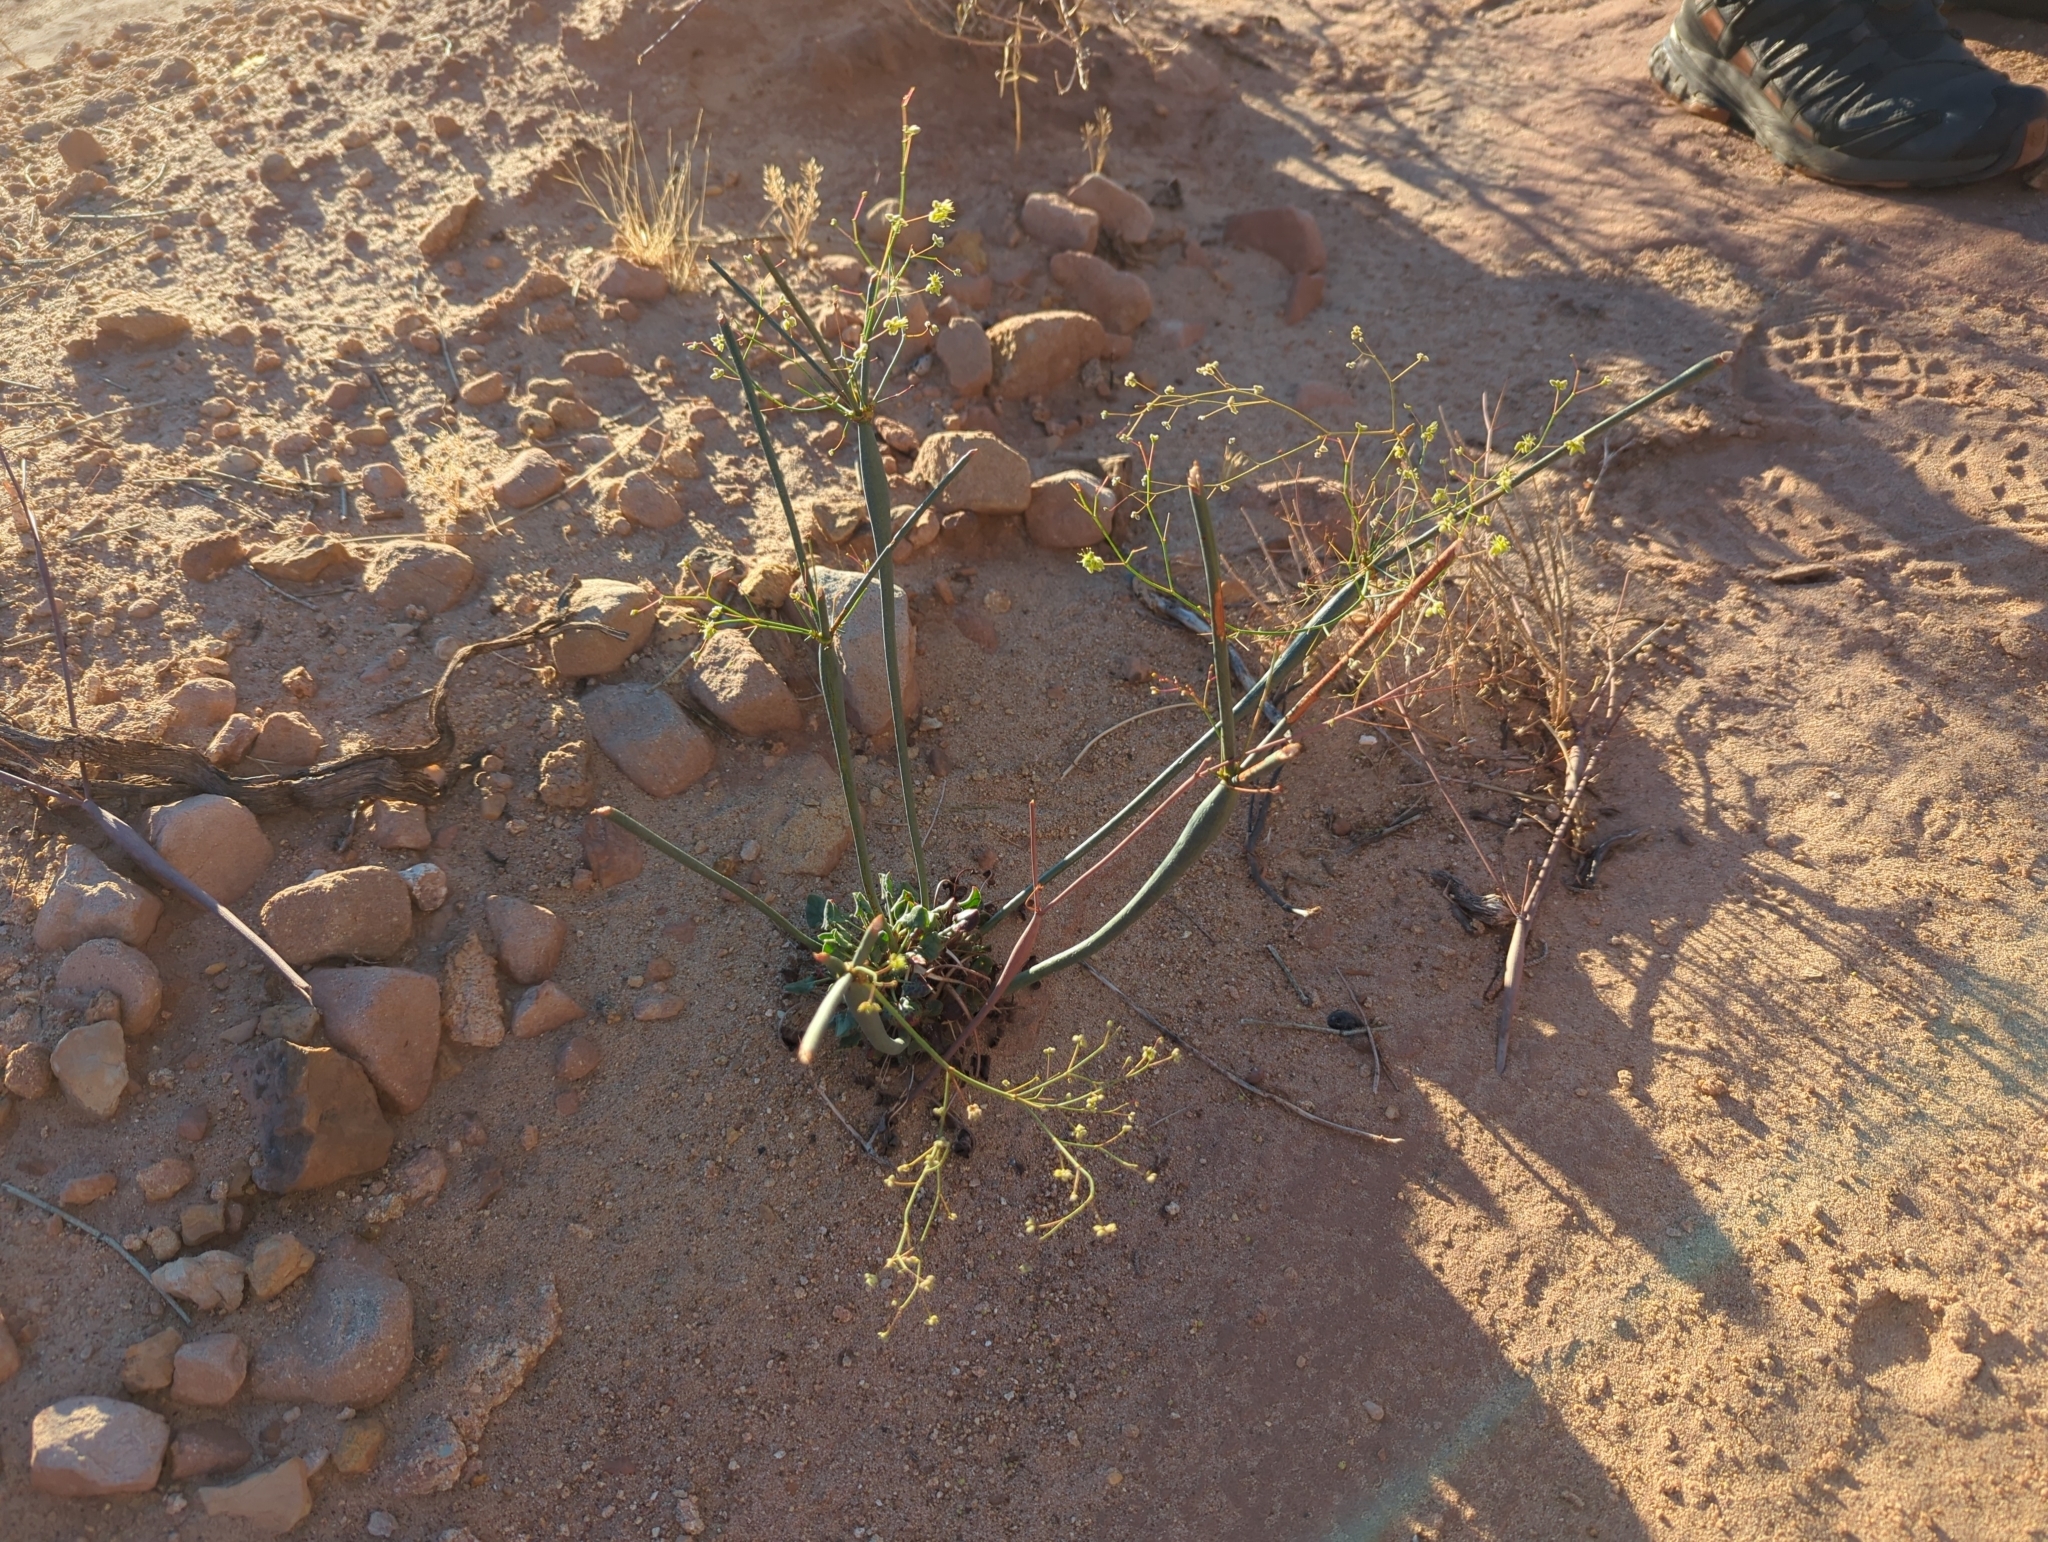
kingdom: Plantae
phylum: Tracheophyta
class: Magnoliopsida
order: Caryophyllales
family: Polygonaceae
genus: Eriogonum
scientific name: Eriogonum fusiforme
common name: Grand valley desert trumpet
